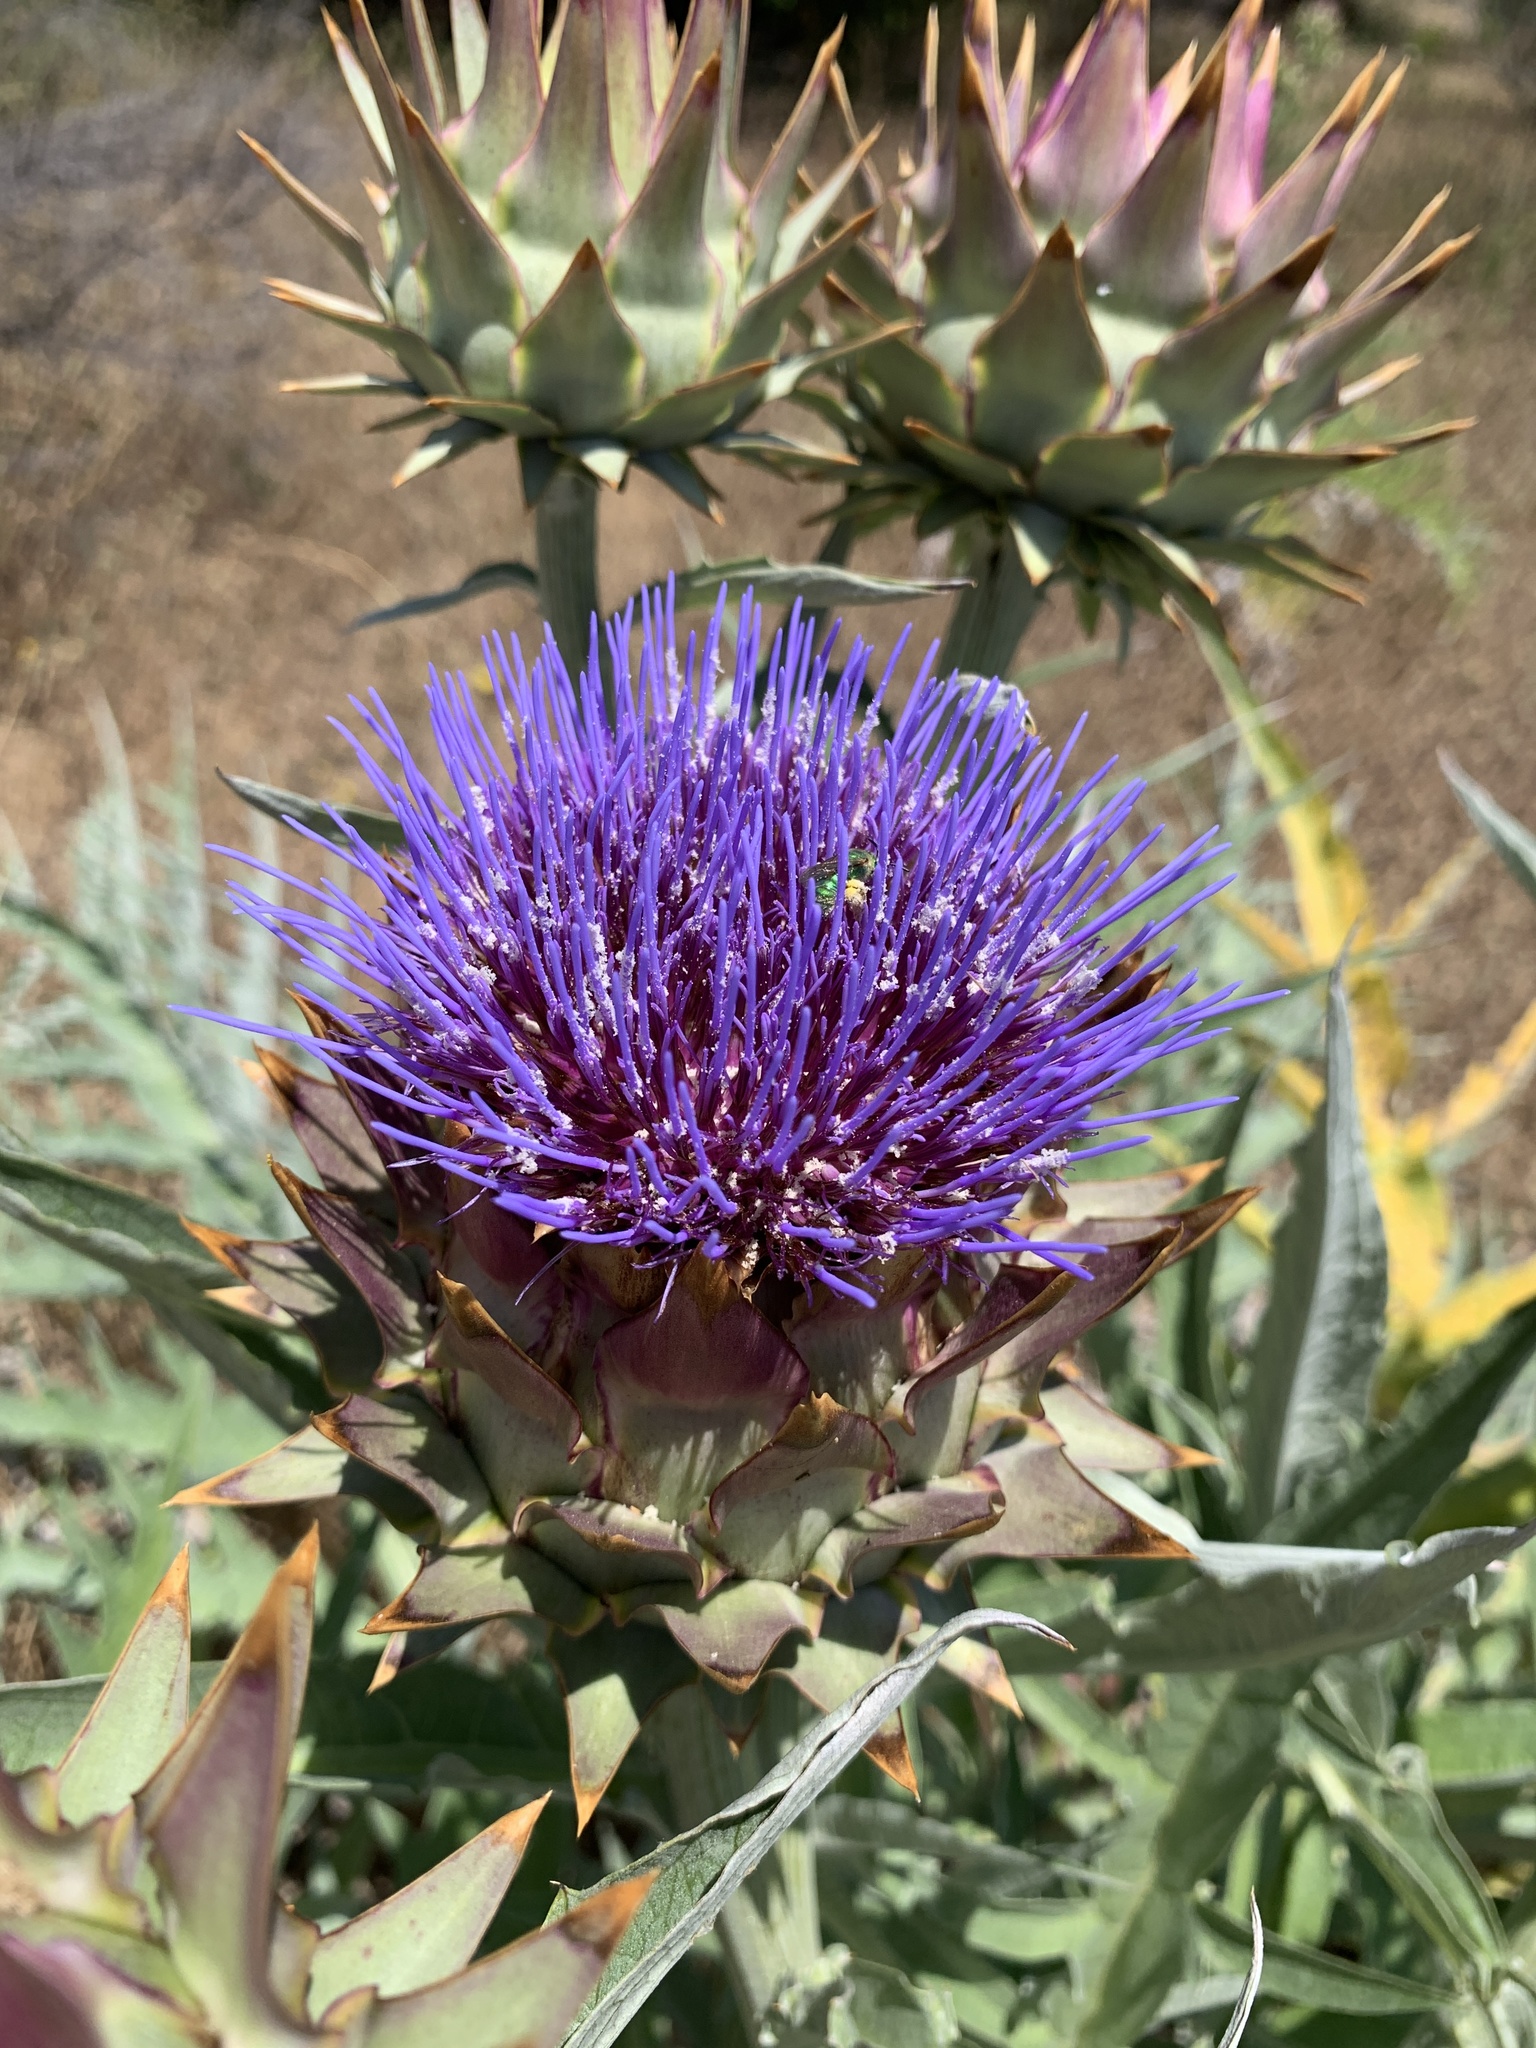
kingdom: Plantae
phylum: Tracheophyta
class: Magnoliopsida
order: Asterales
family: Asteraceae
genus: Cynara
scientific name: Cynara cardunculus
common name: Globe artichoke
